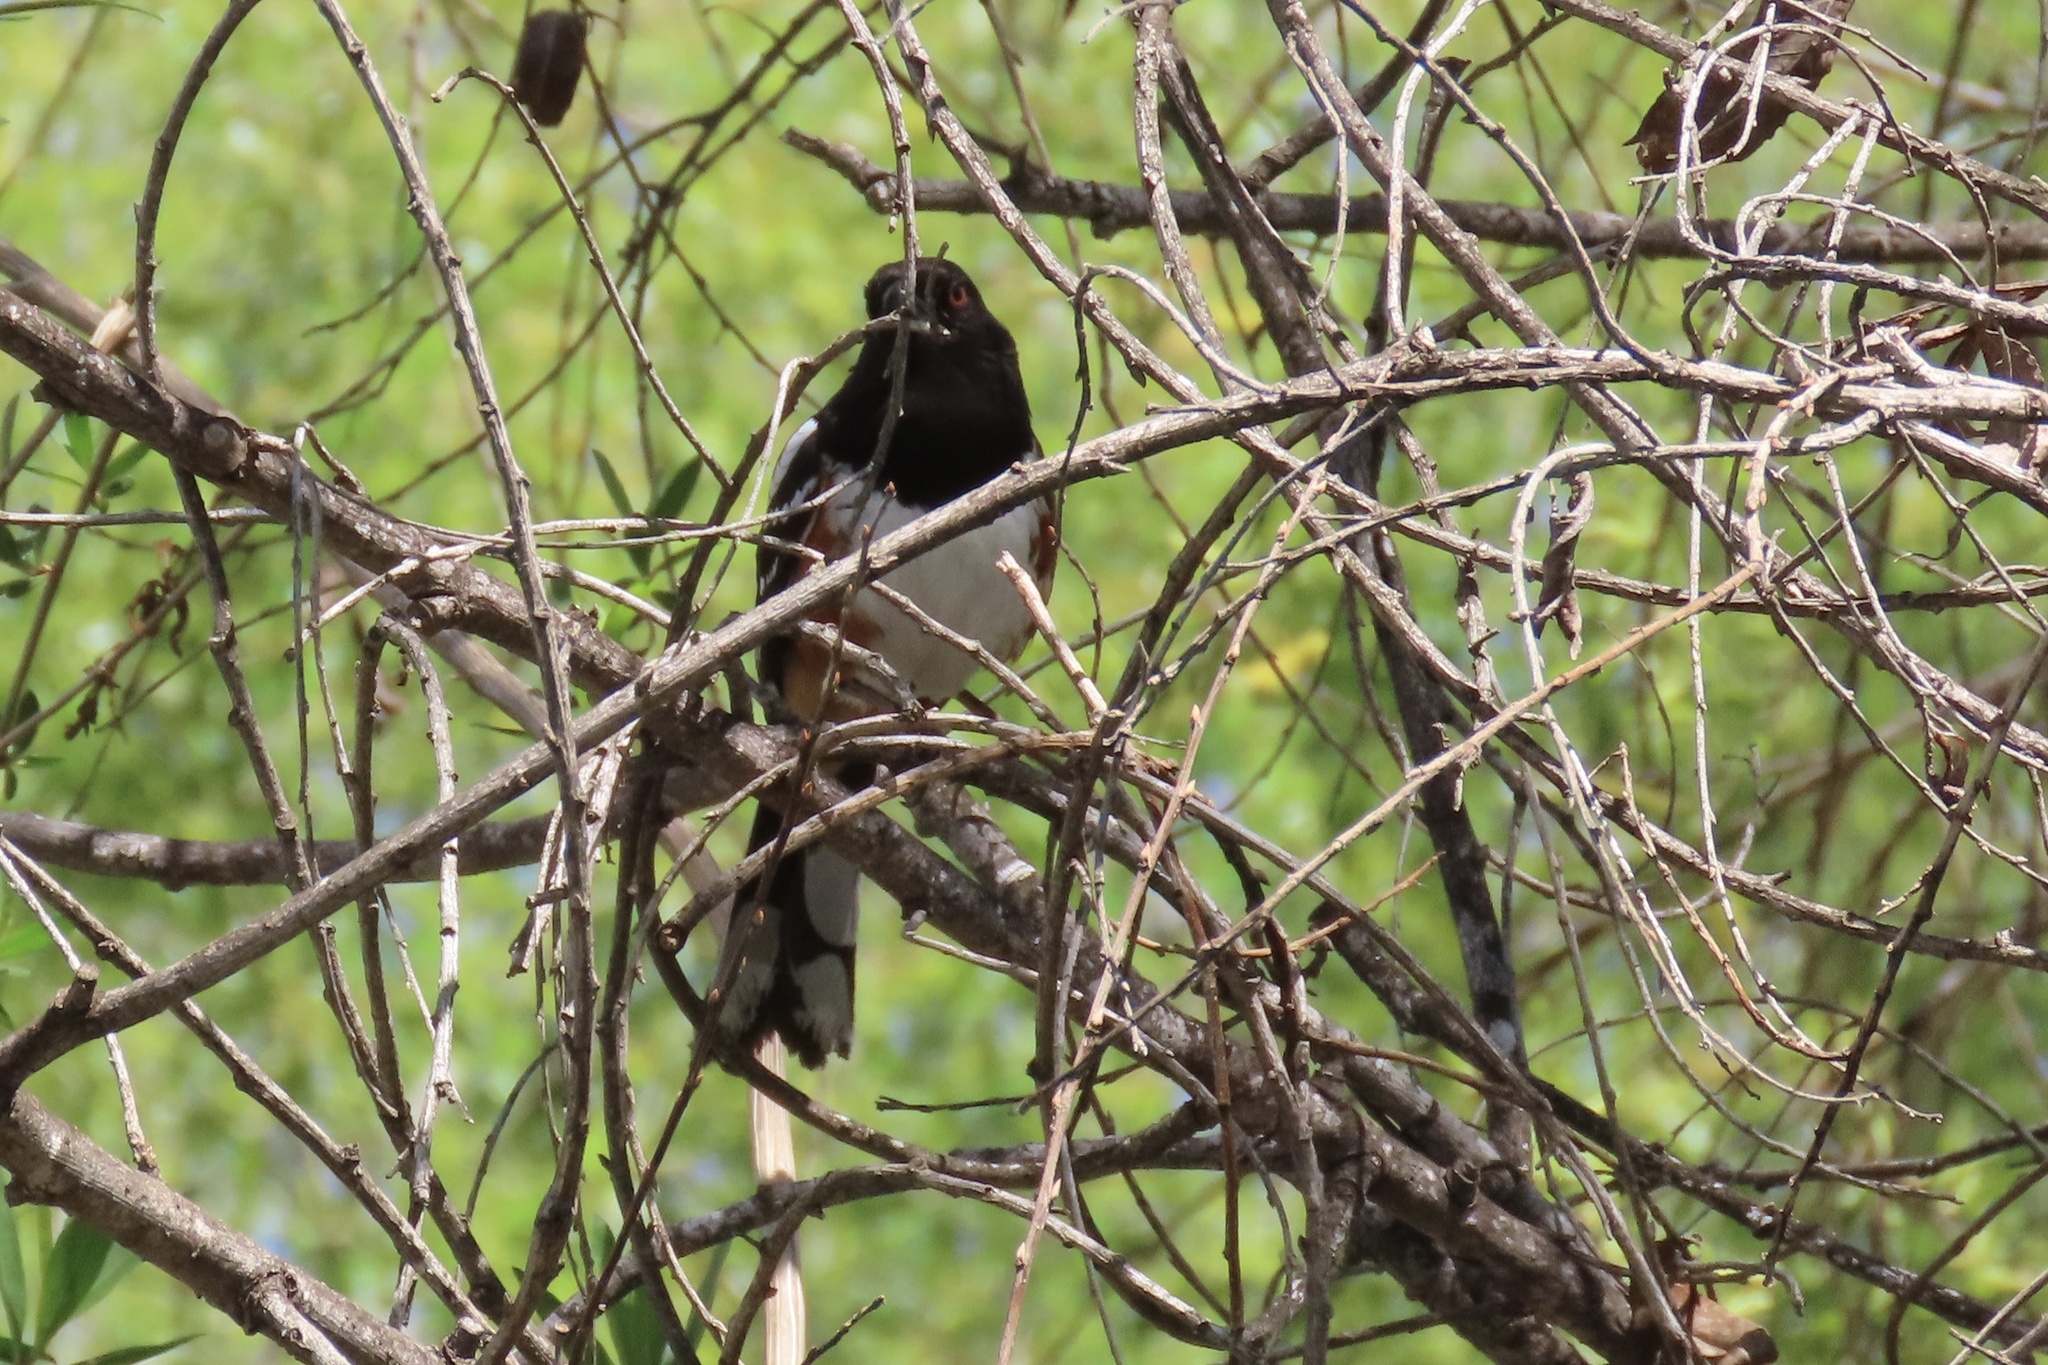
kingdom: Animalia
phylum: Chordata
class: Aves
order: Passeriformes
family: Passerellidae
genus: Pipilo
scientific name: Pipilo maculatus
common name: Spotted towhee
